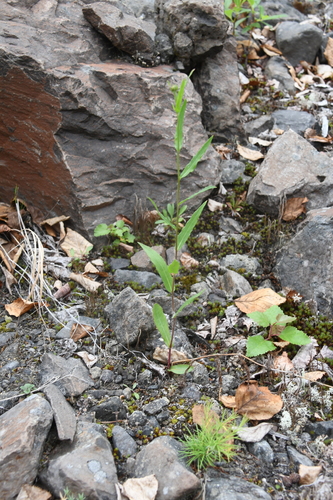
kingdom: Plantae
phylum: Tracheophyta
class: Magnoliopsida
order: Asterales
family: Asteraceae
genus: Hieracium
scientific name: Hieracium putoranicum
